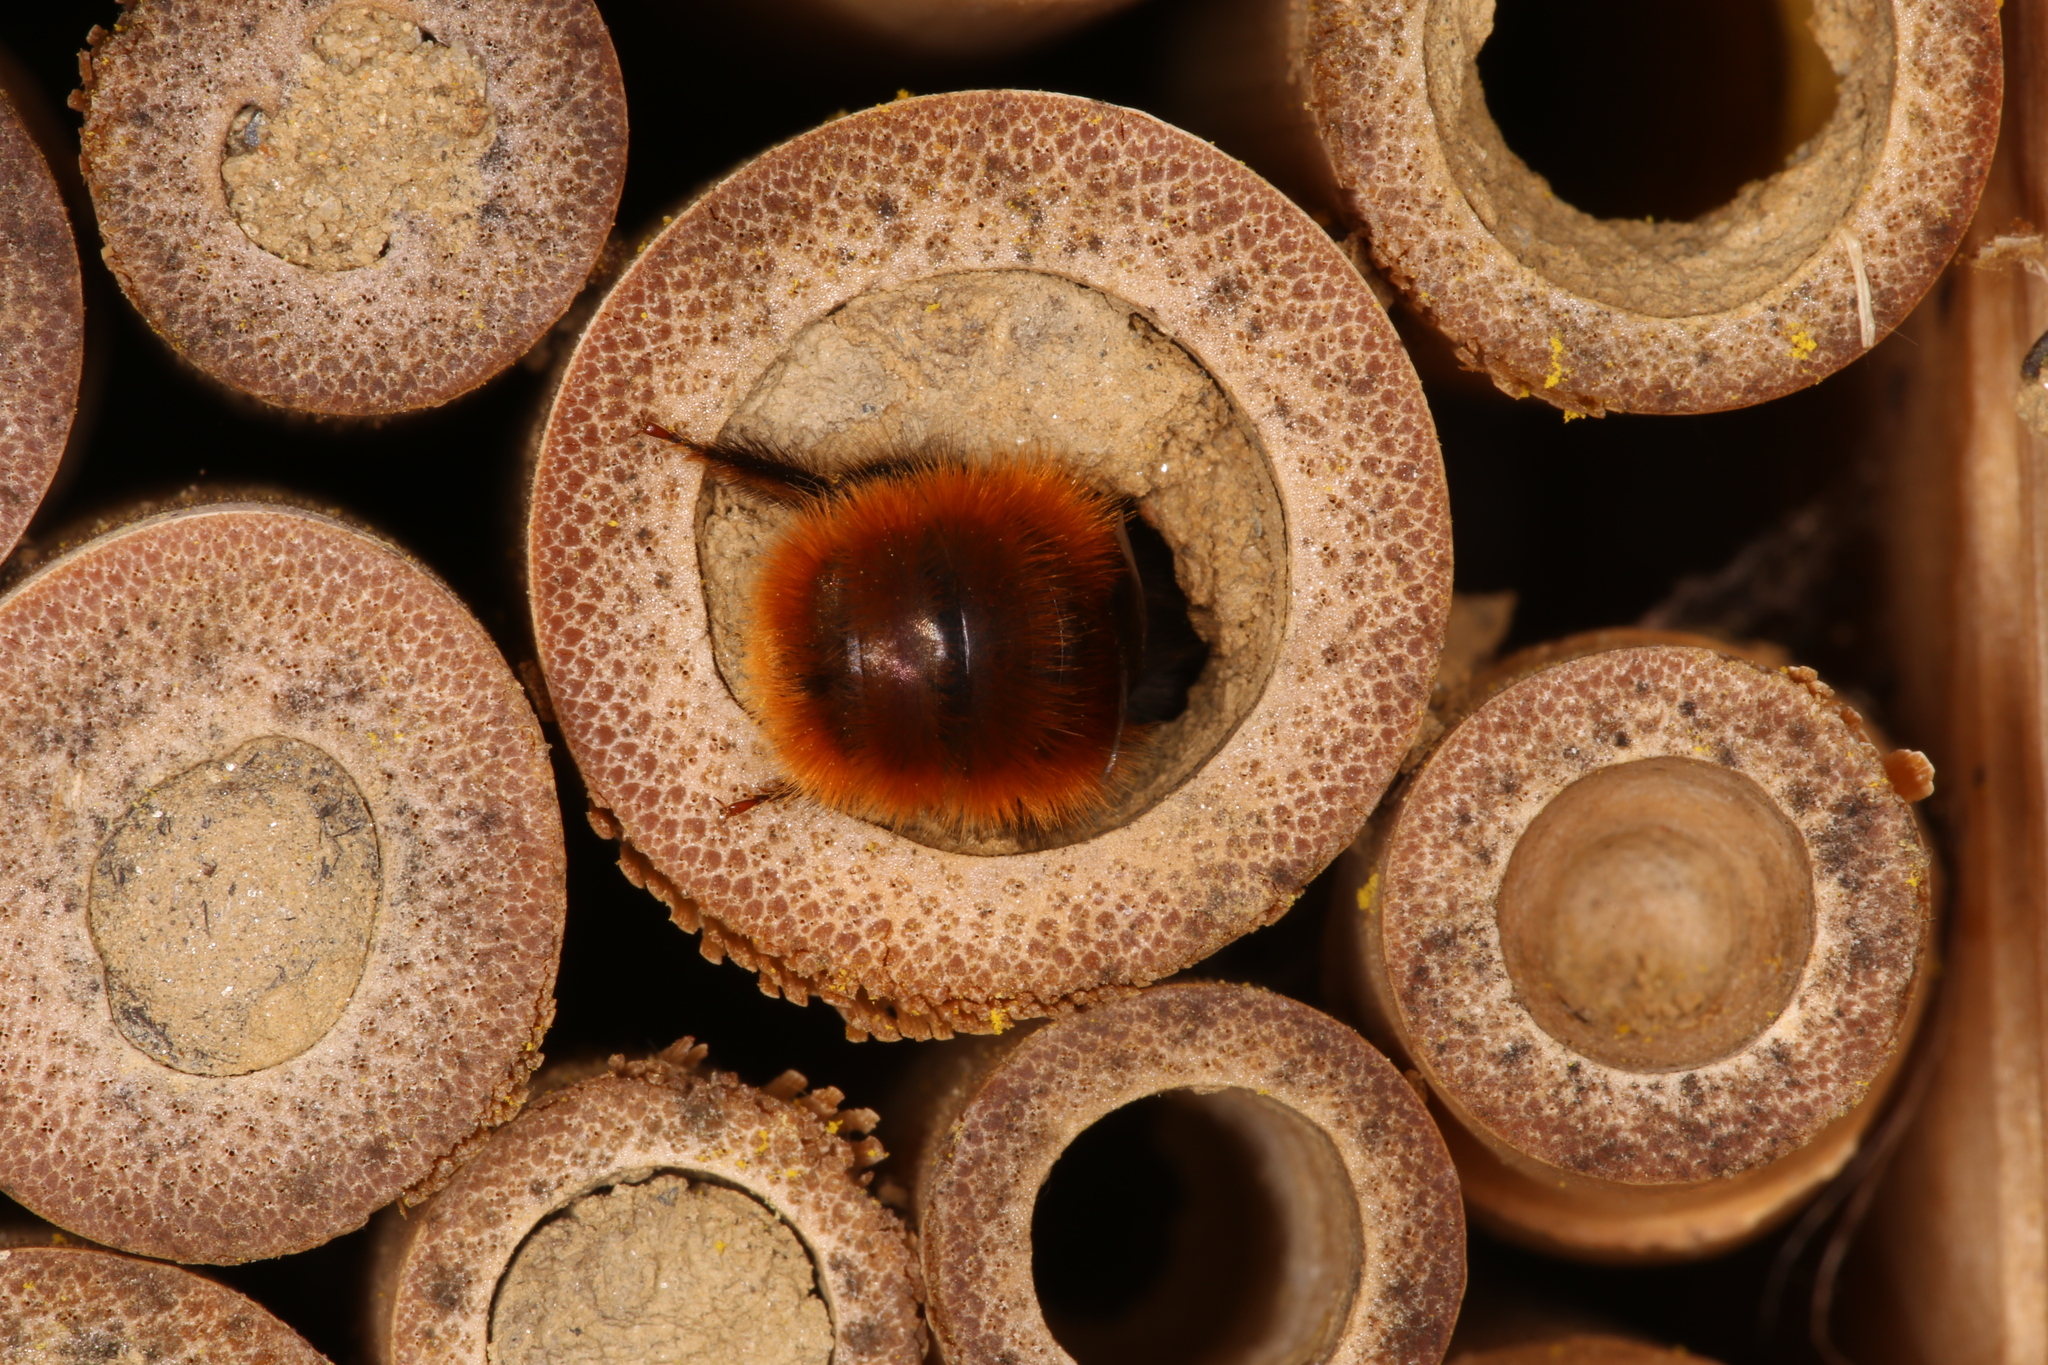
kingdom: Animalia
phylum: Arthropoda
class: Insecta
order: Hymenoptera
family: Megachilidae
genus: Osmia
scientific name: Osmia cornuta
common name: Mason bee
